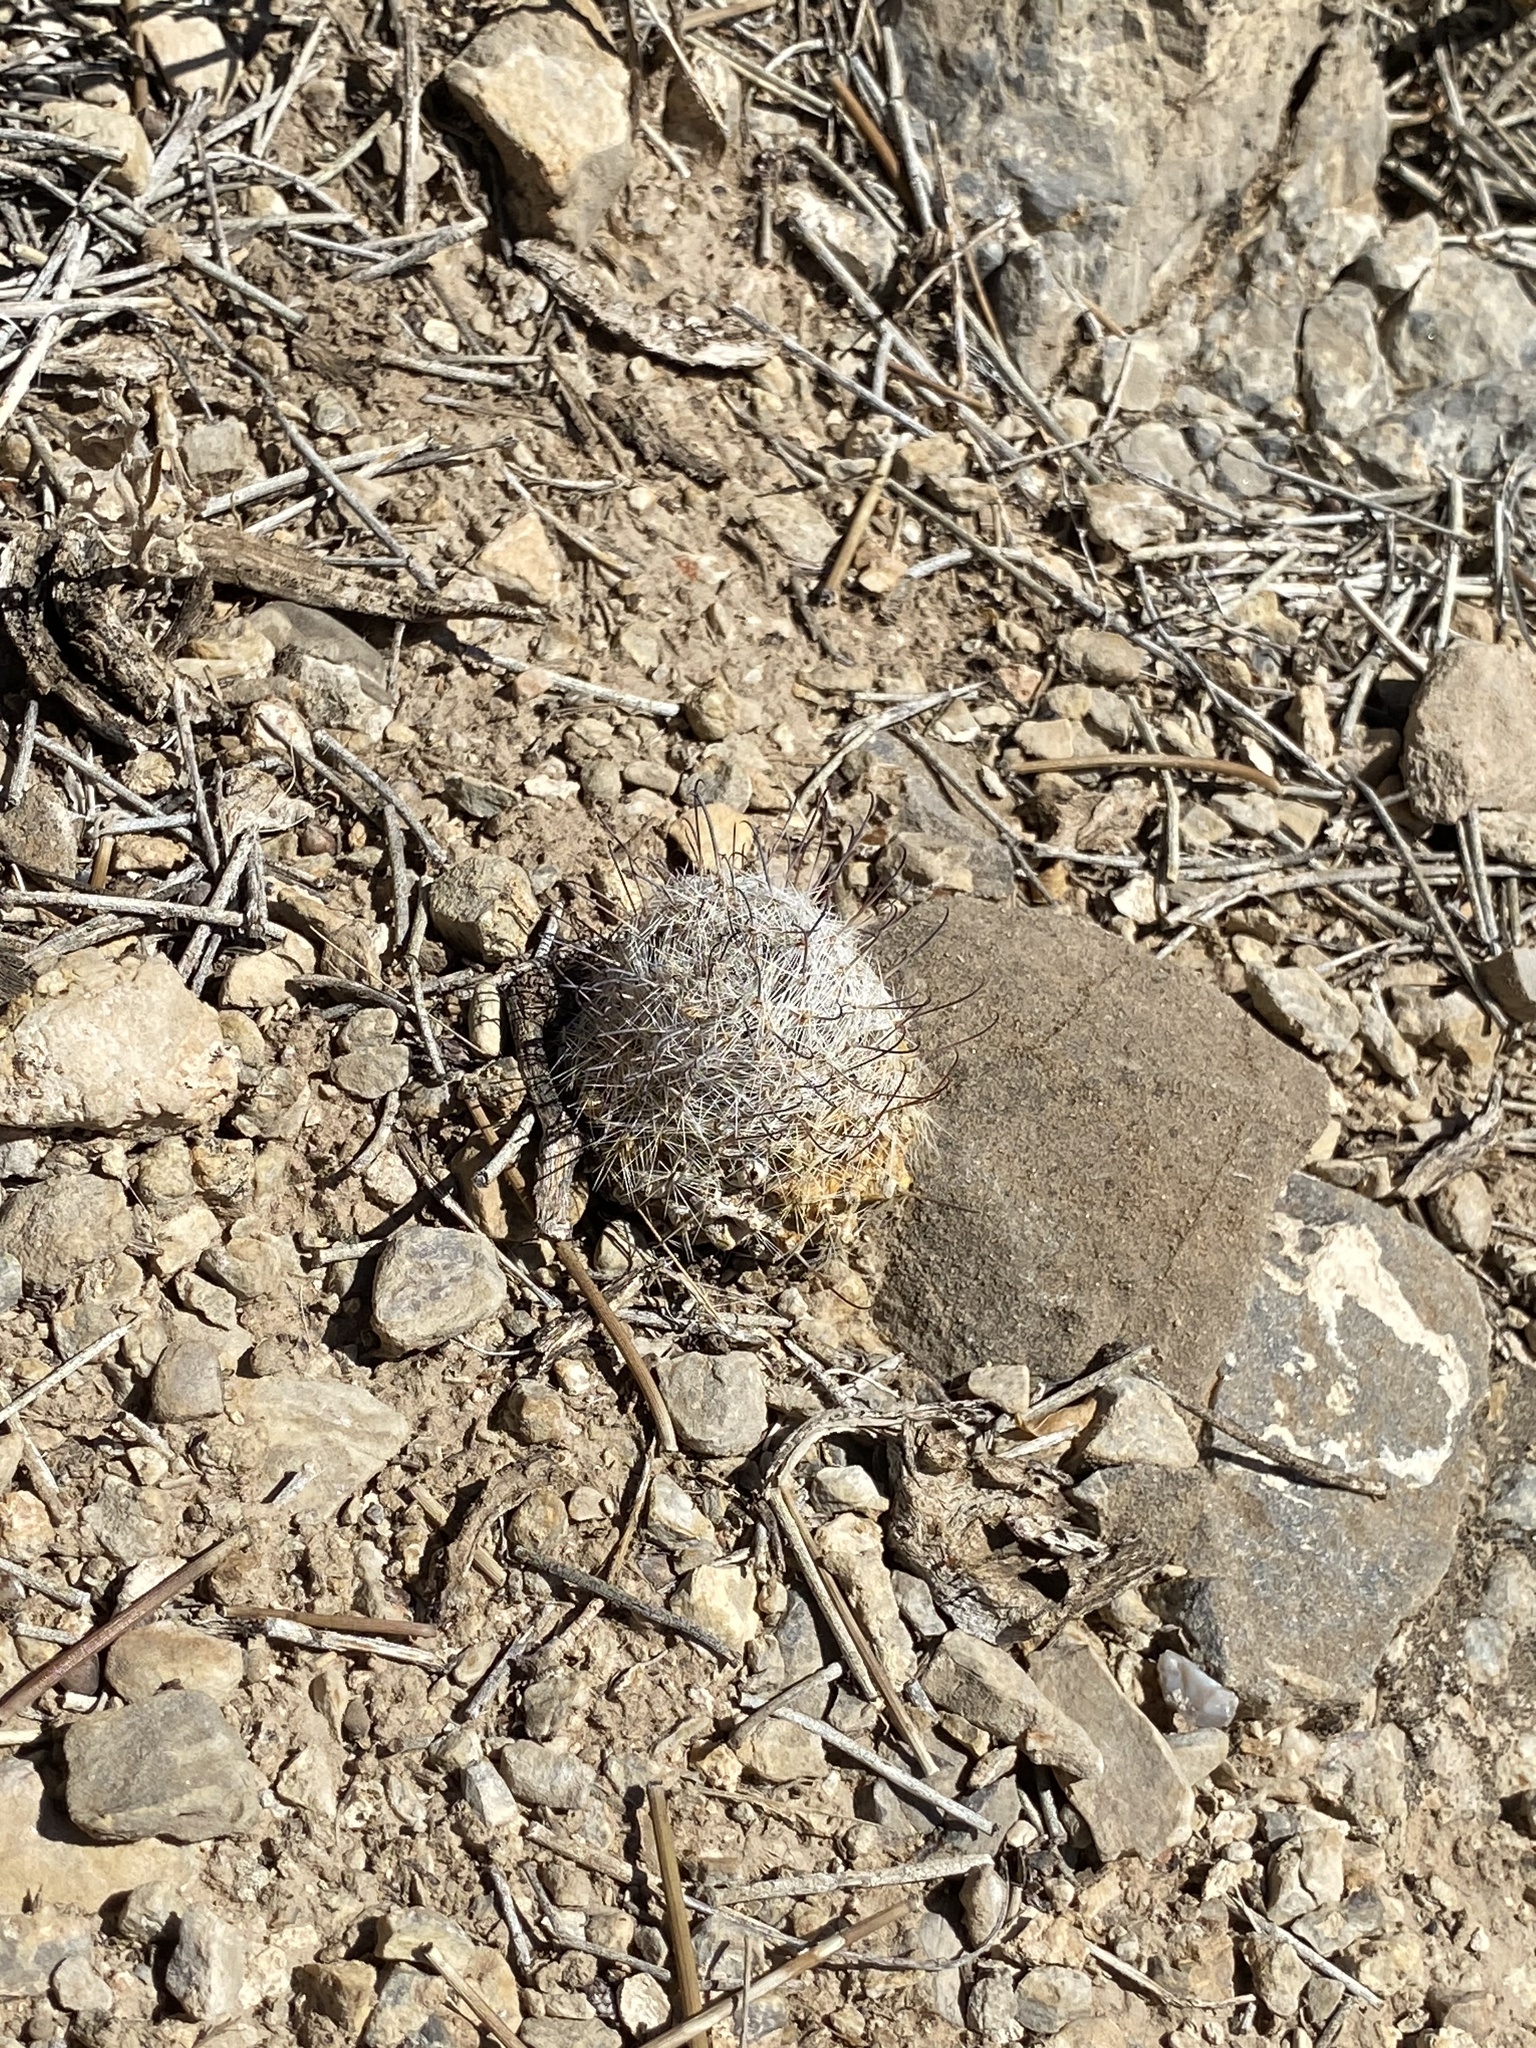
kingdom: Plantae
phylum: Tracheophyta
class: Magnoliopsida
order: Caryophyllales
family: Cactaceae
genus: Cochemiea
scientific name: Cochemiea grahamii
